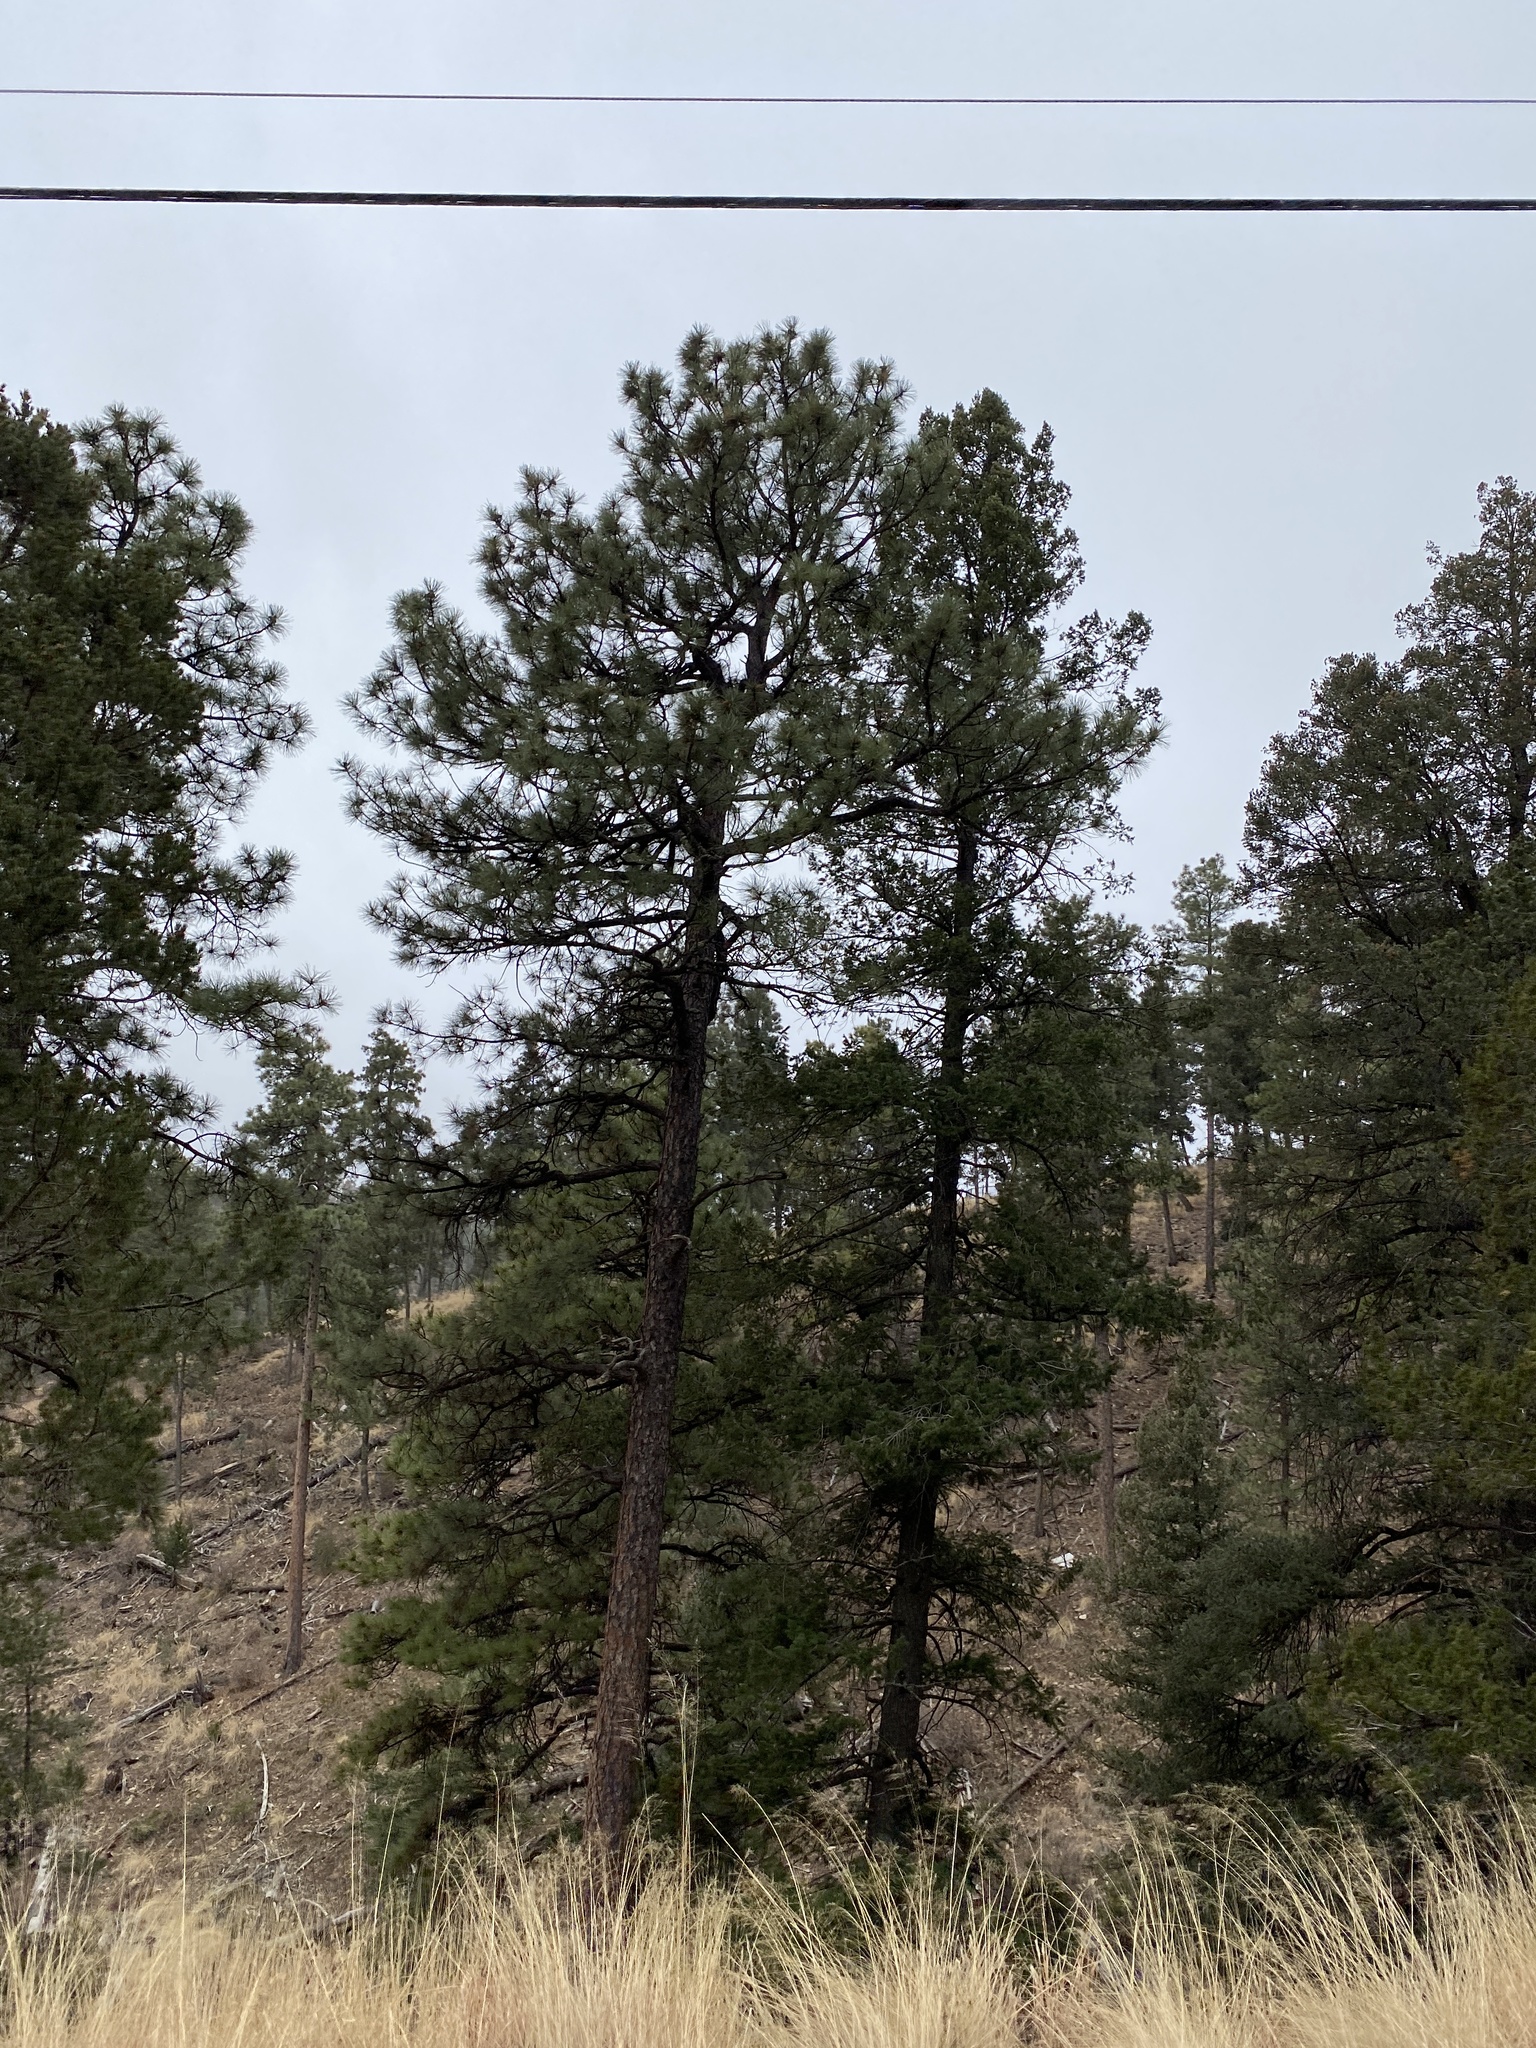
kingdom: Plantae
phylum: Tracheophyta
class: Pinopsida
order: Pinales
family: Pinaceae
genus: Pinus
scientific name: Pinus ponderosa
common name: Western yellow-pine
